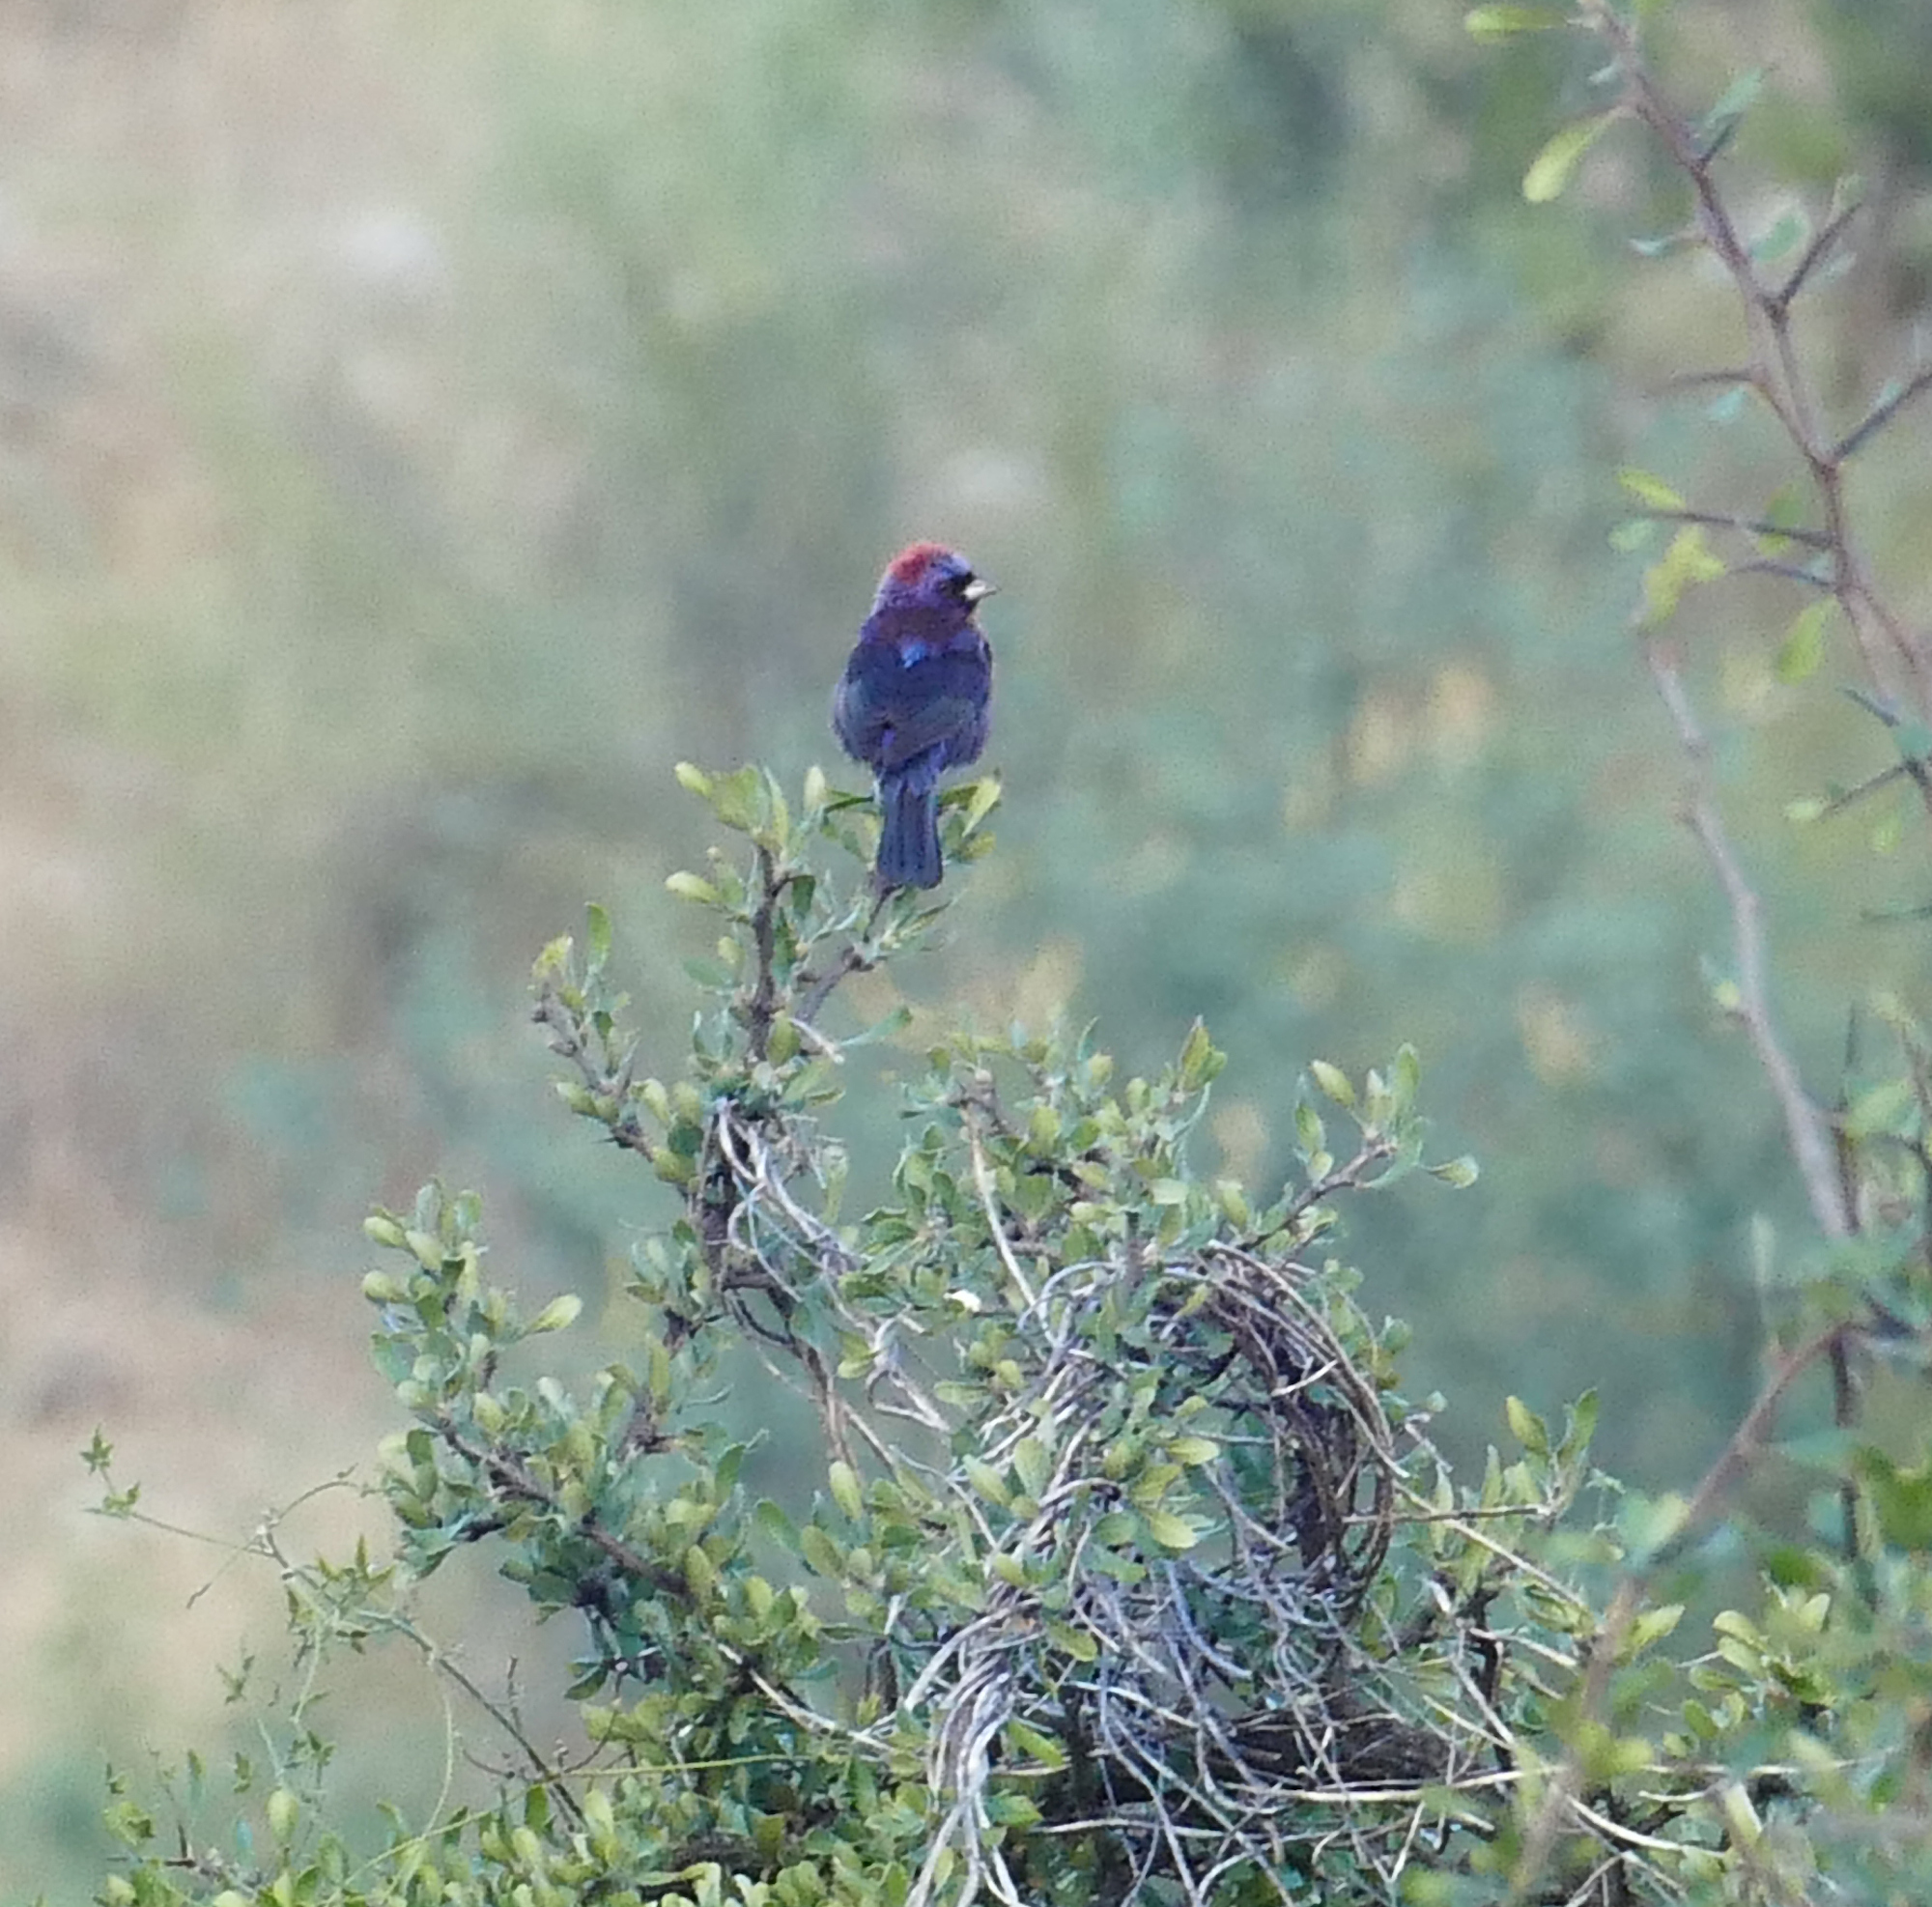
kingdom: Animalia
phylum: Chordata
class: Aves
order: Passeriformes
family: Cardinalidae
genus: Passerina
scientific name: Passerina versicolor
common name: Varied bunting
